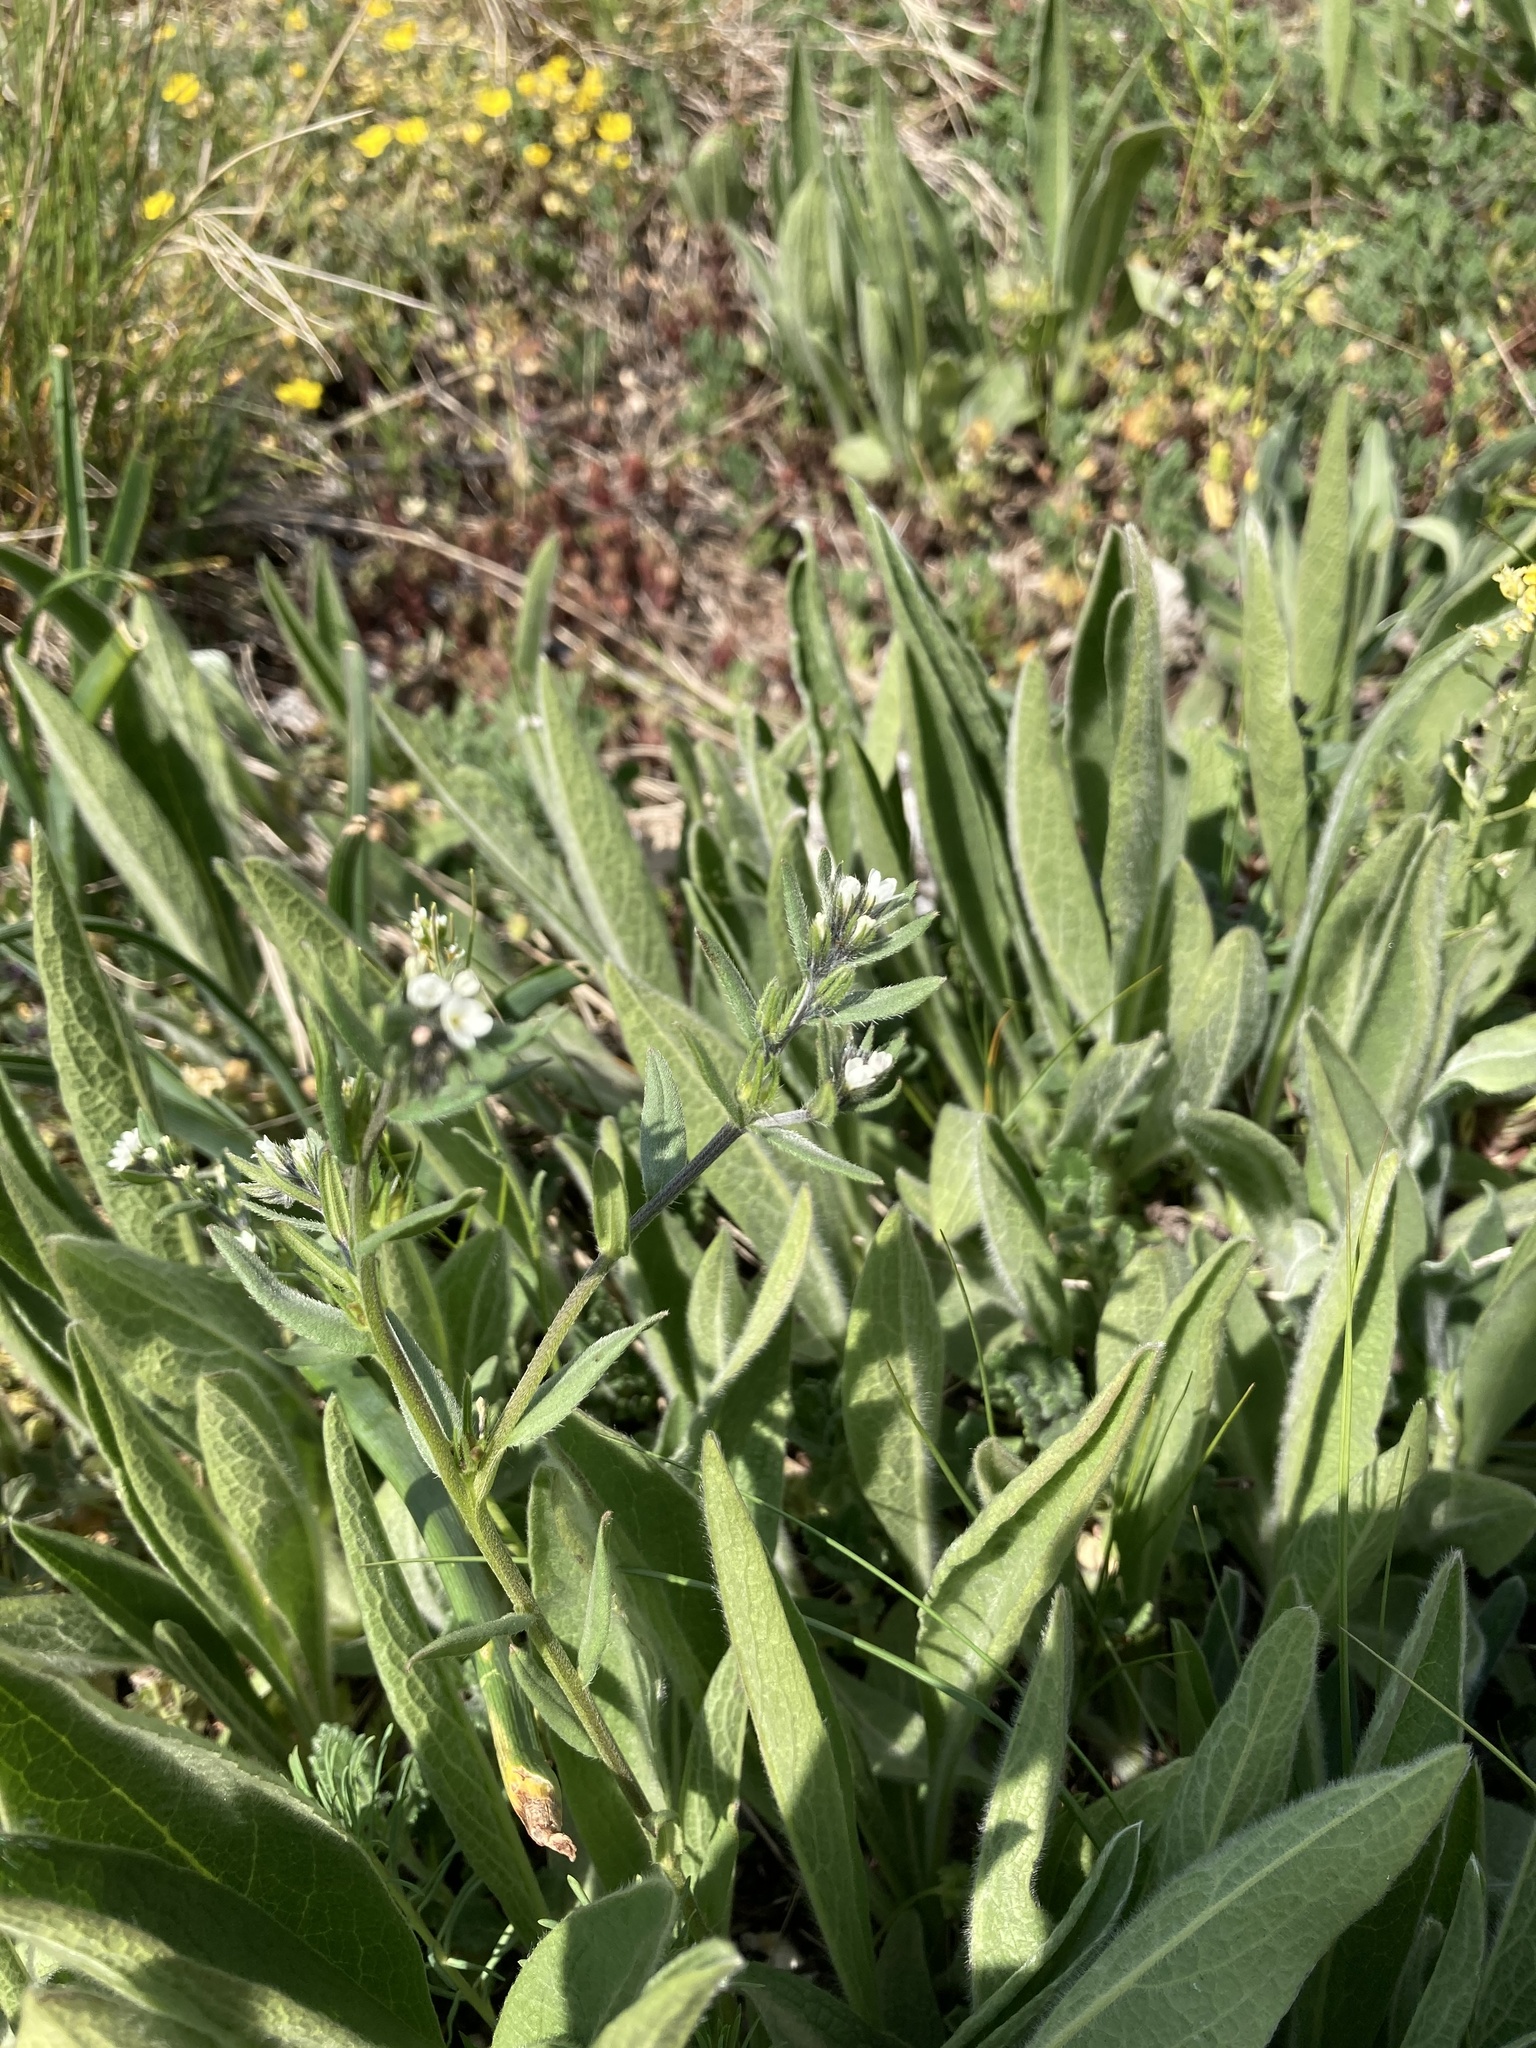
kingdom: Plantae
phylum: Tracheophyta
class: Magnoliopsida
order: Boraginales
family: Boraginaceae
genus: Buglossoides
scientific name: Buglossoides arvensis
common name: Corn gromwell
